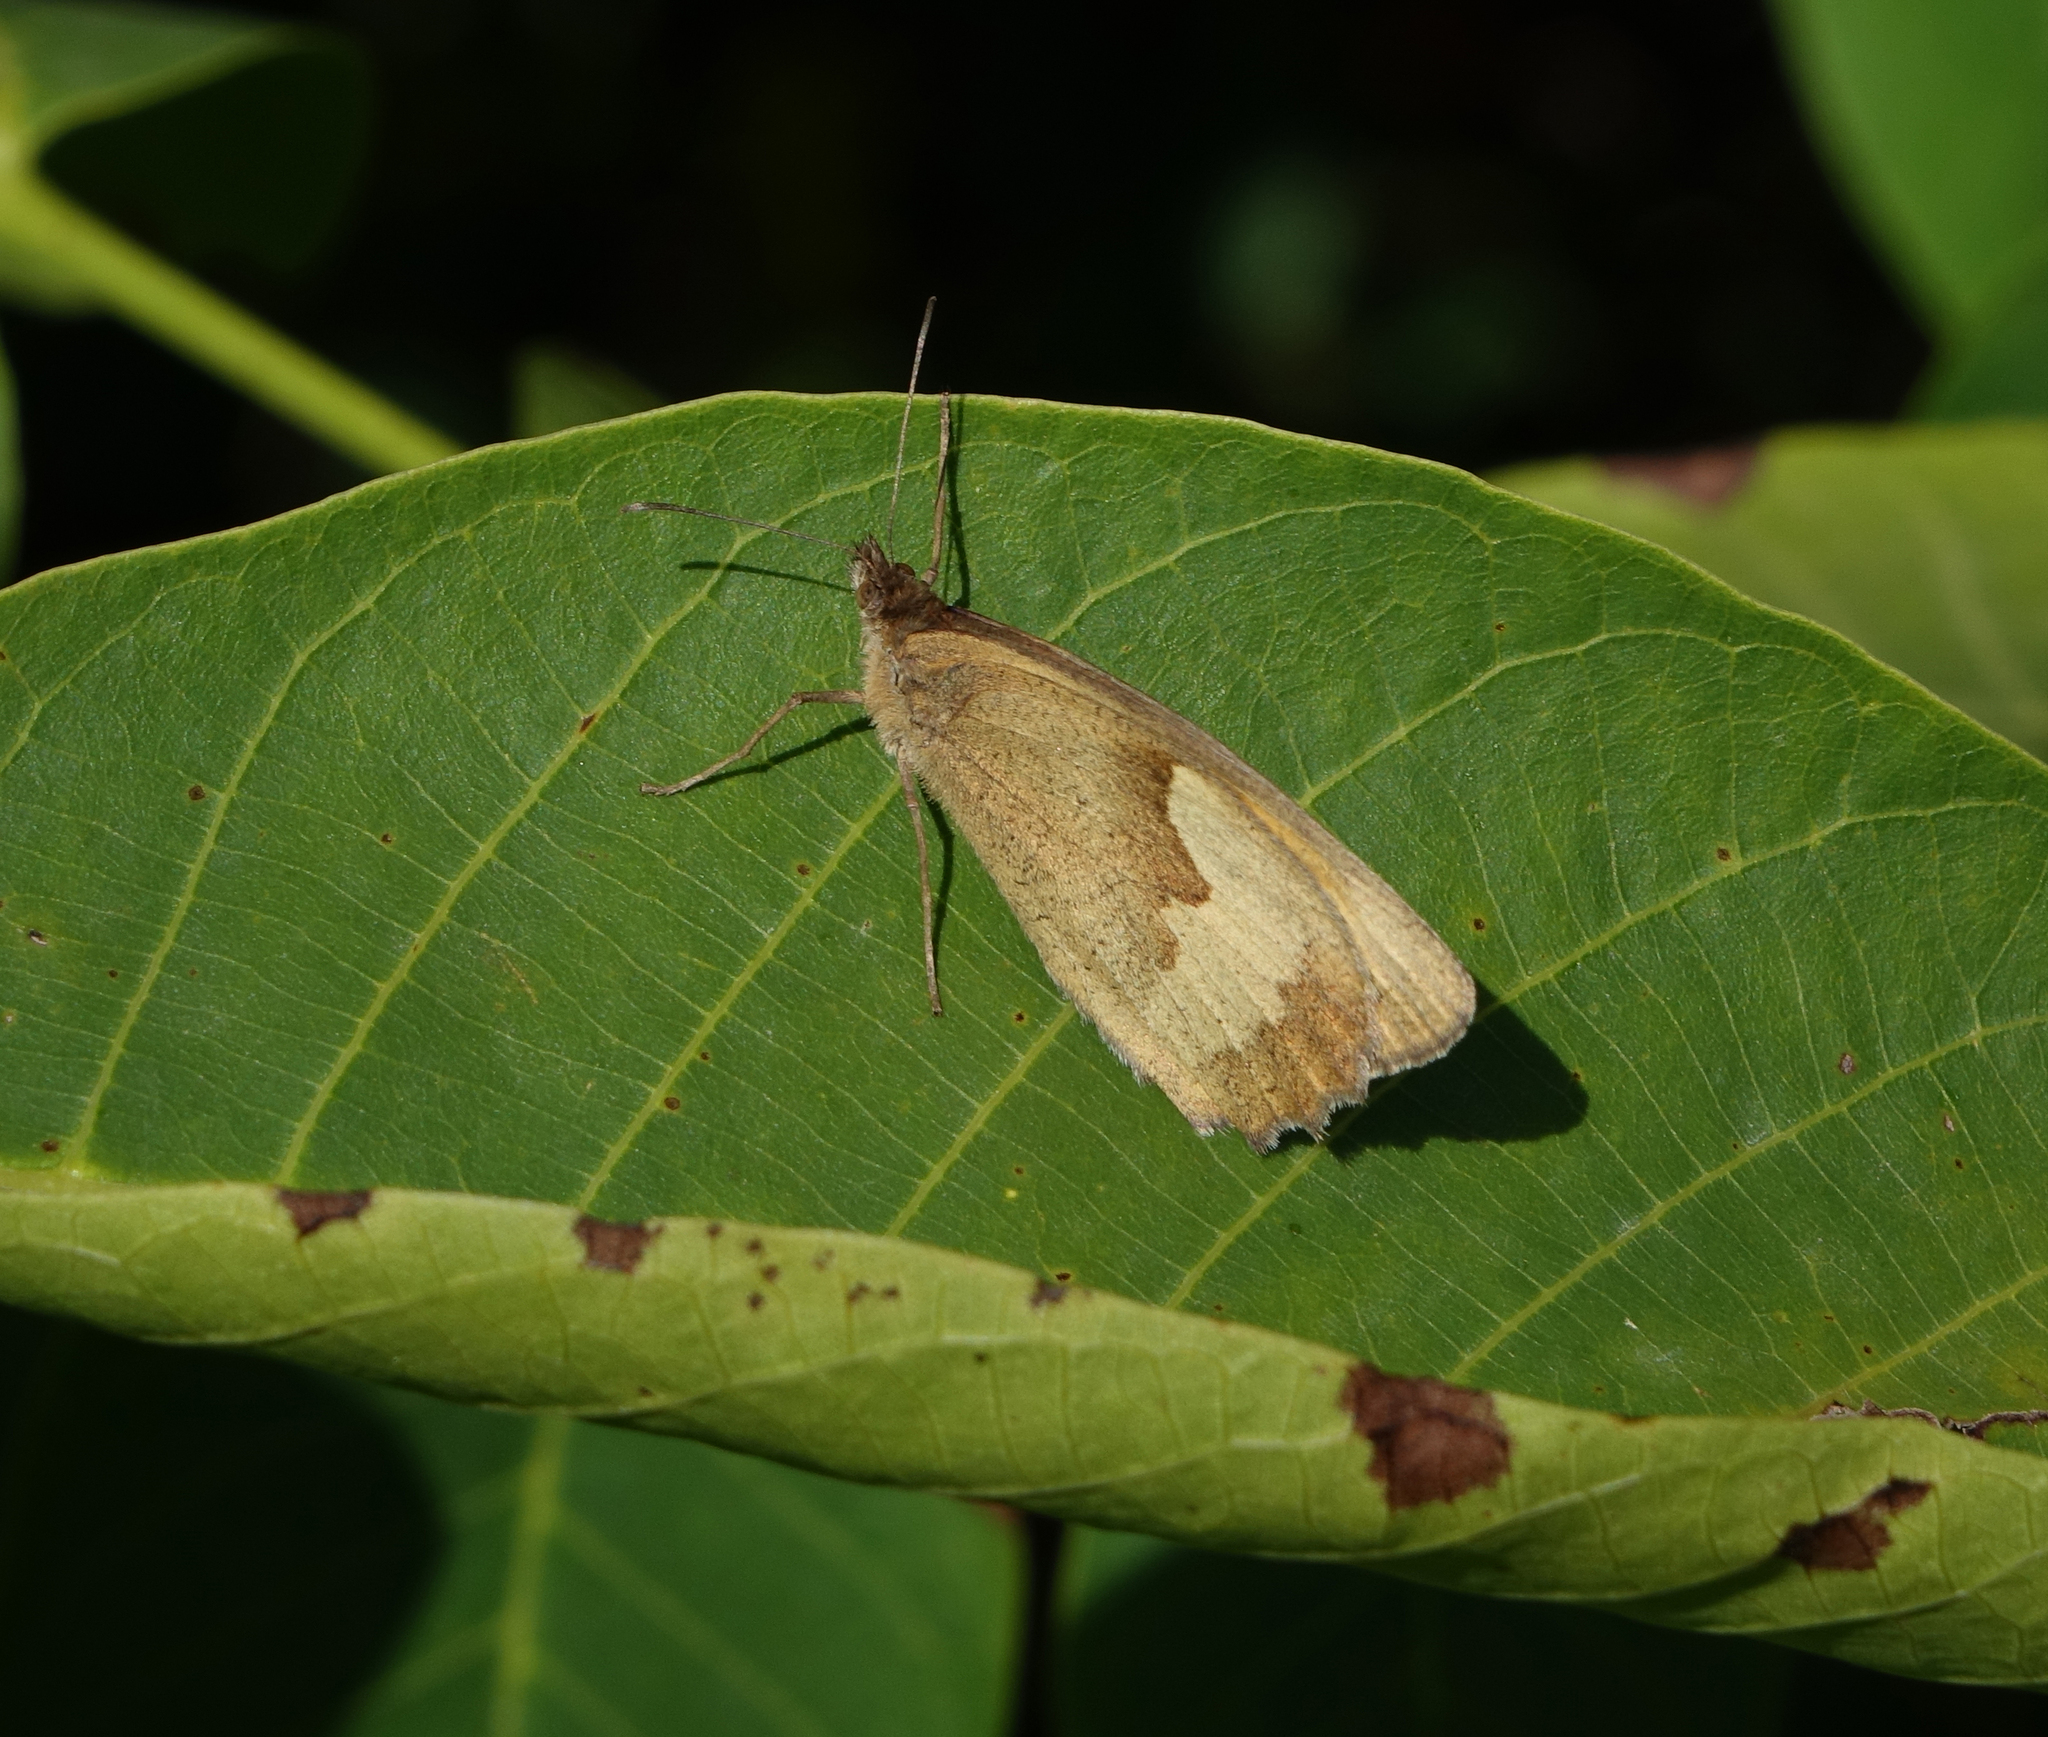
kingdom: Animalia
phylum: Arthropoda
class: Insecta
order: Lepidoptera
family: Nymphalidae
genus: Maniola
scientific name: Maniola jurtina
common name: Meadow brown
